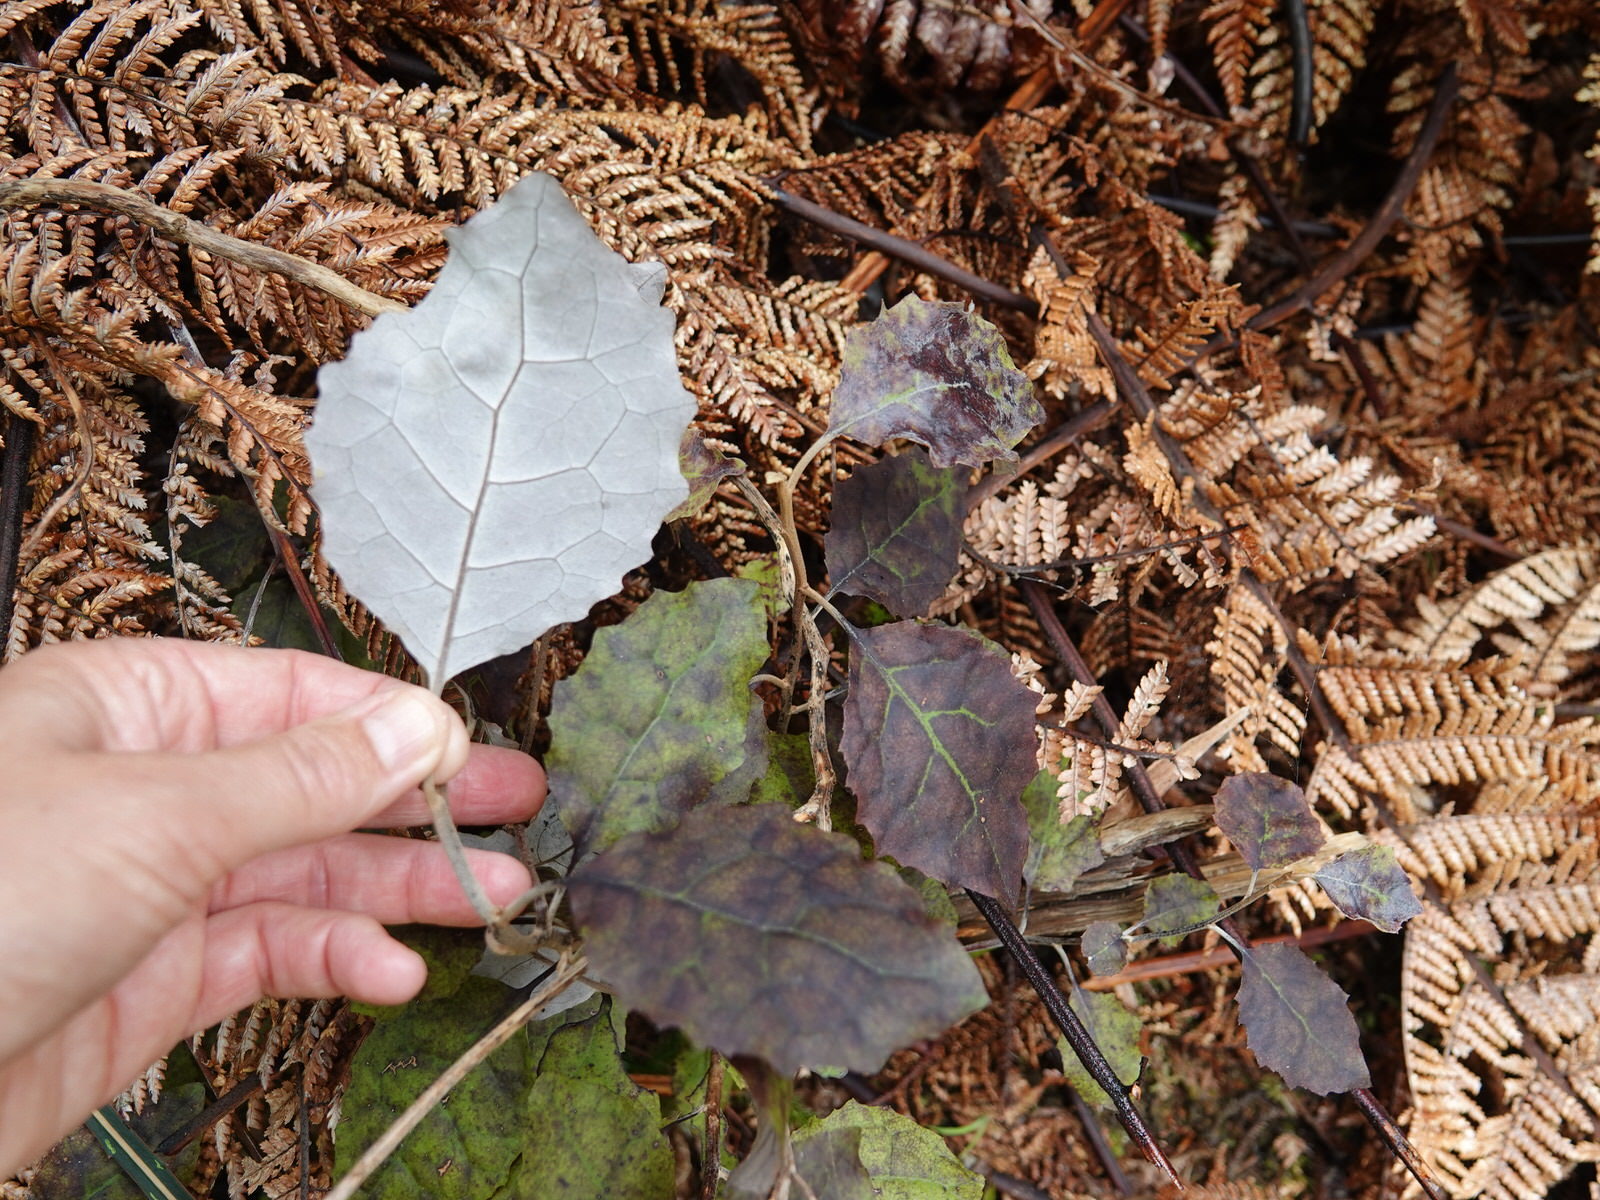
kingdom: Plantae
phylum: Tracheophyta
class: Magnoliopsida
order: Asterales
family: Asteraceae
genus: Brachyglottis
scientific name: Brachyglottis repanda
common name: Hedge ragwort
